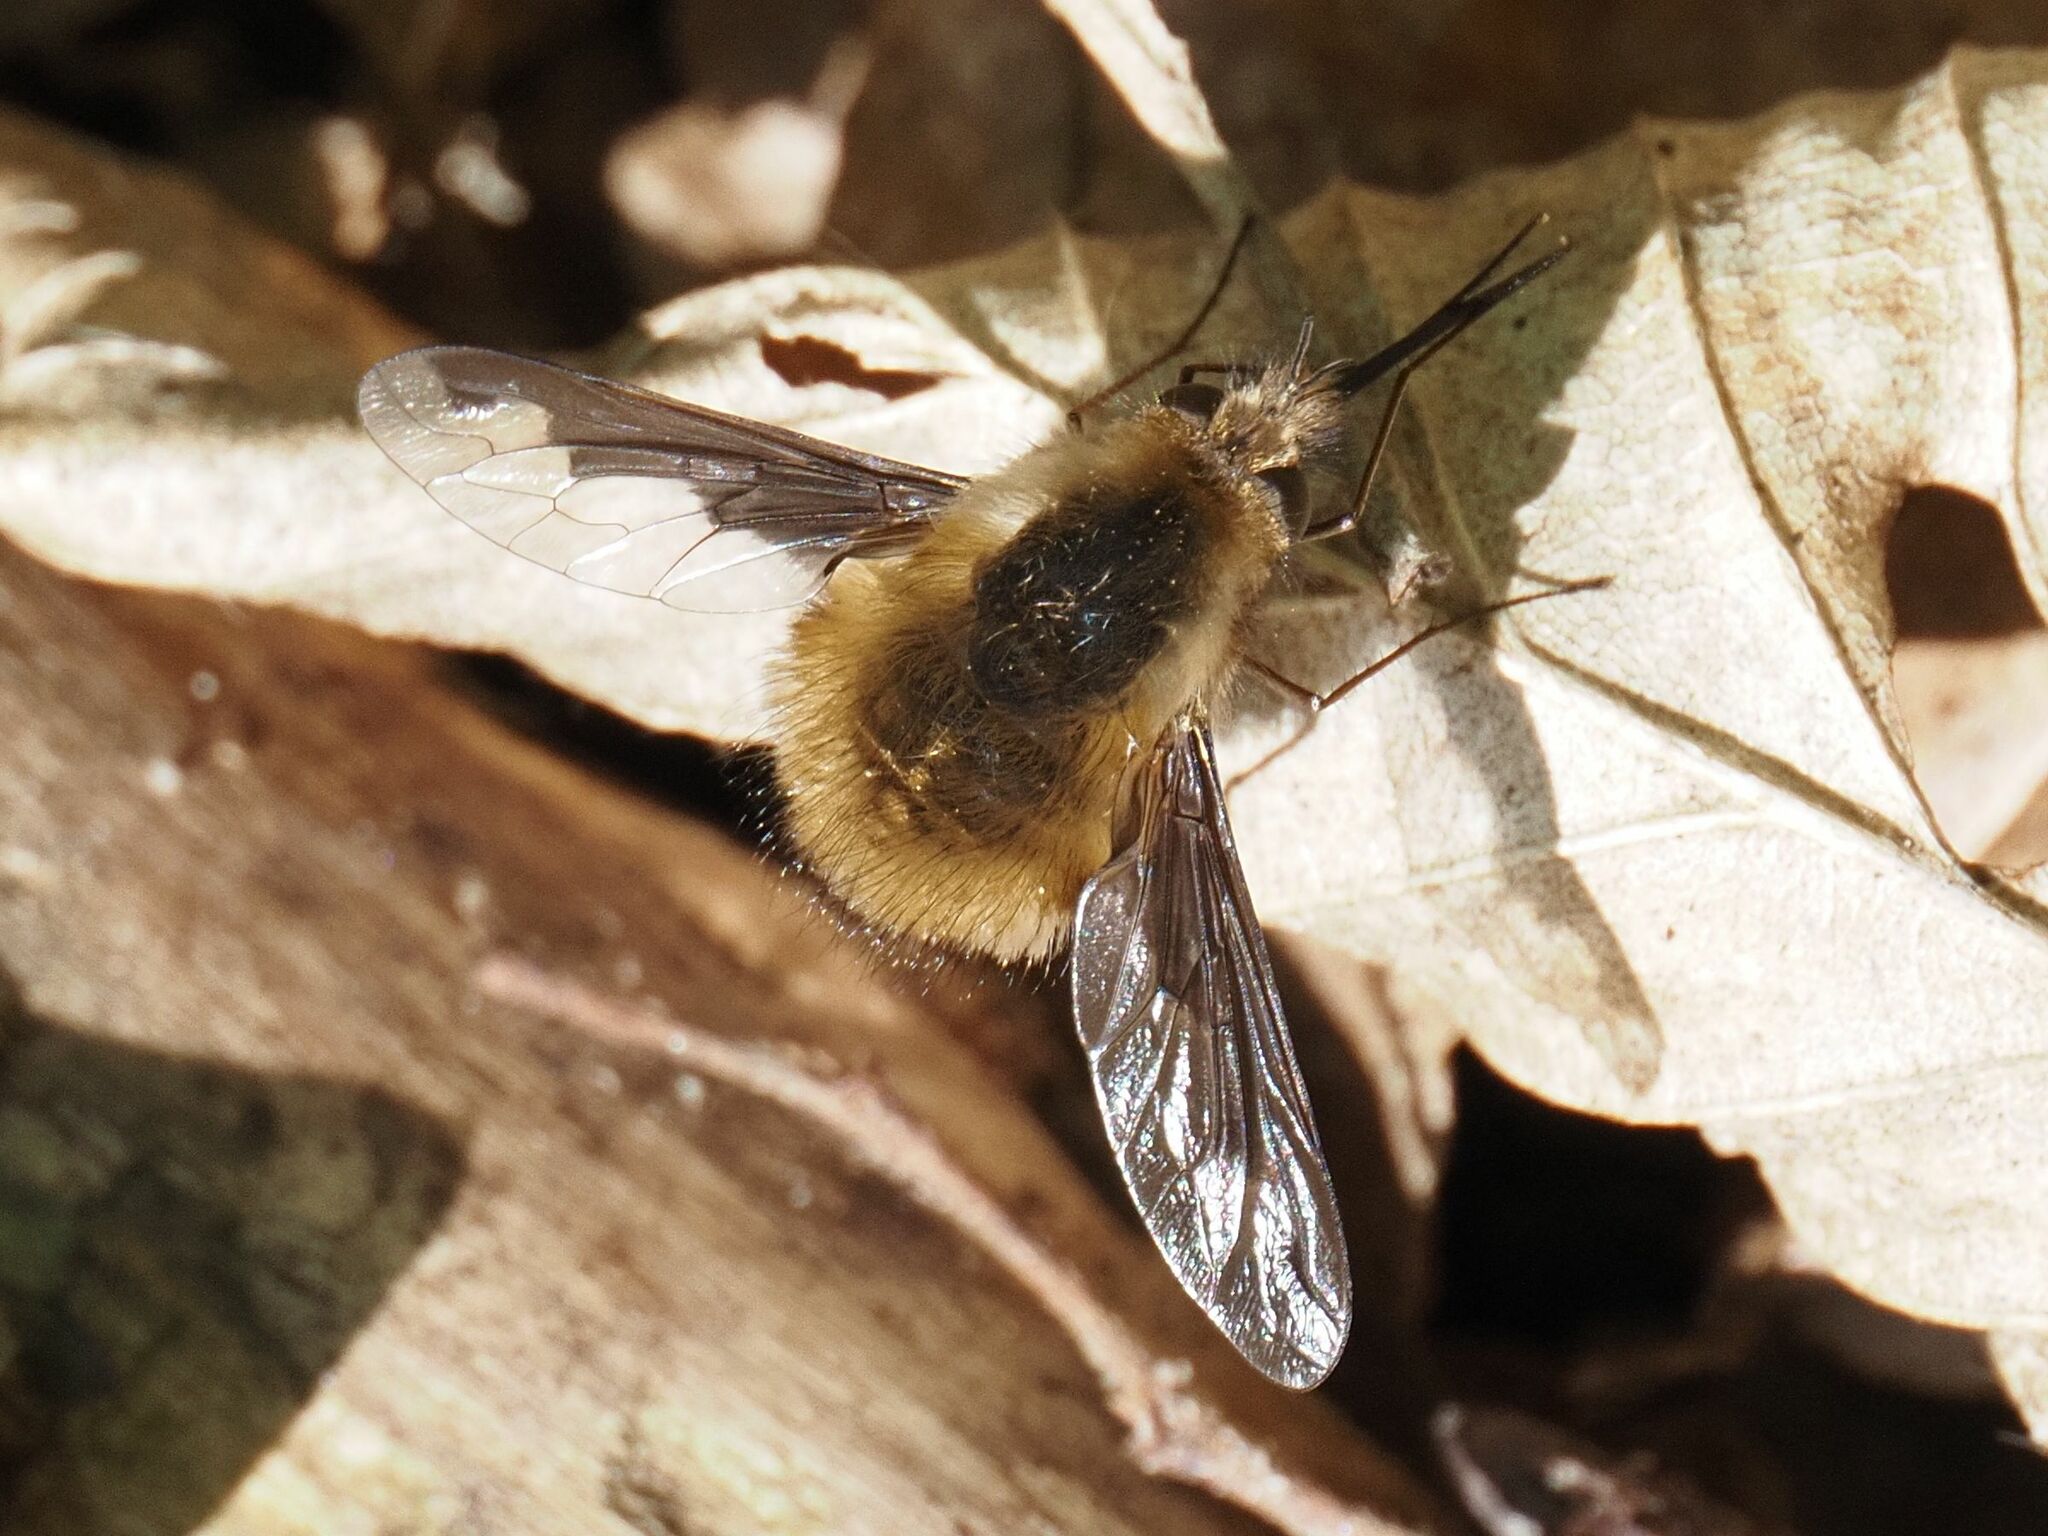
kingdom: Animalia
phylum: Arthropoda
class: Insecta
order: Diptera
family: Bombyliidae
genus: Bombylius
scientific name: Bombylius major
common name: Bee fly
